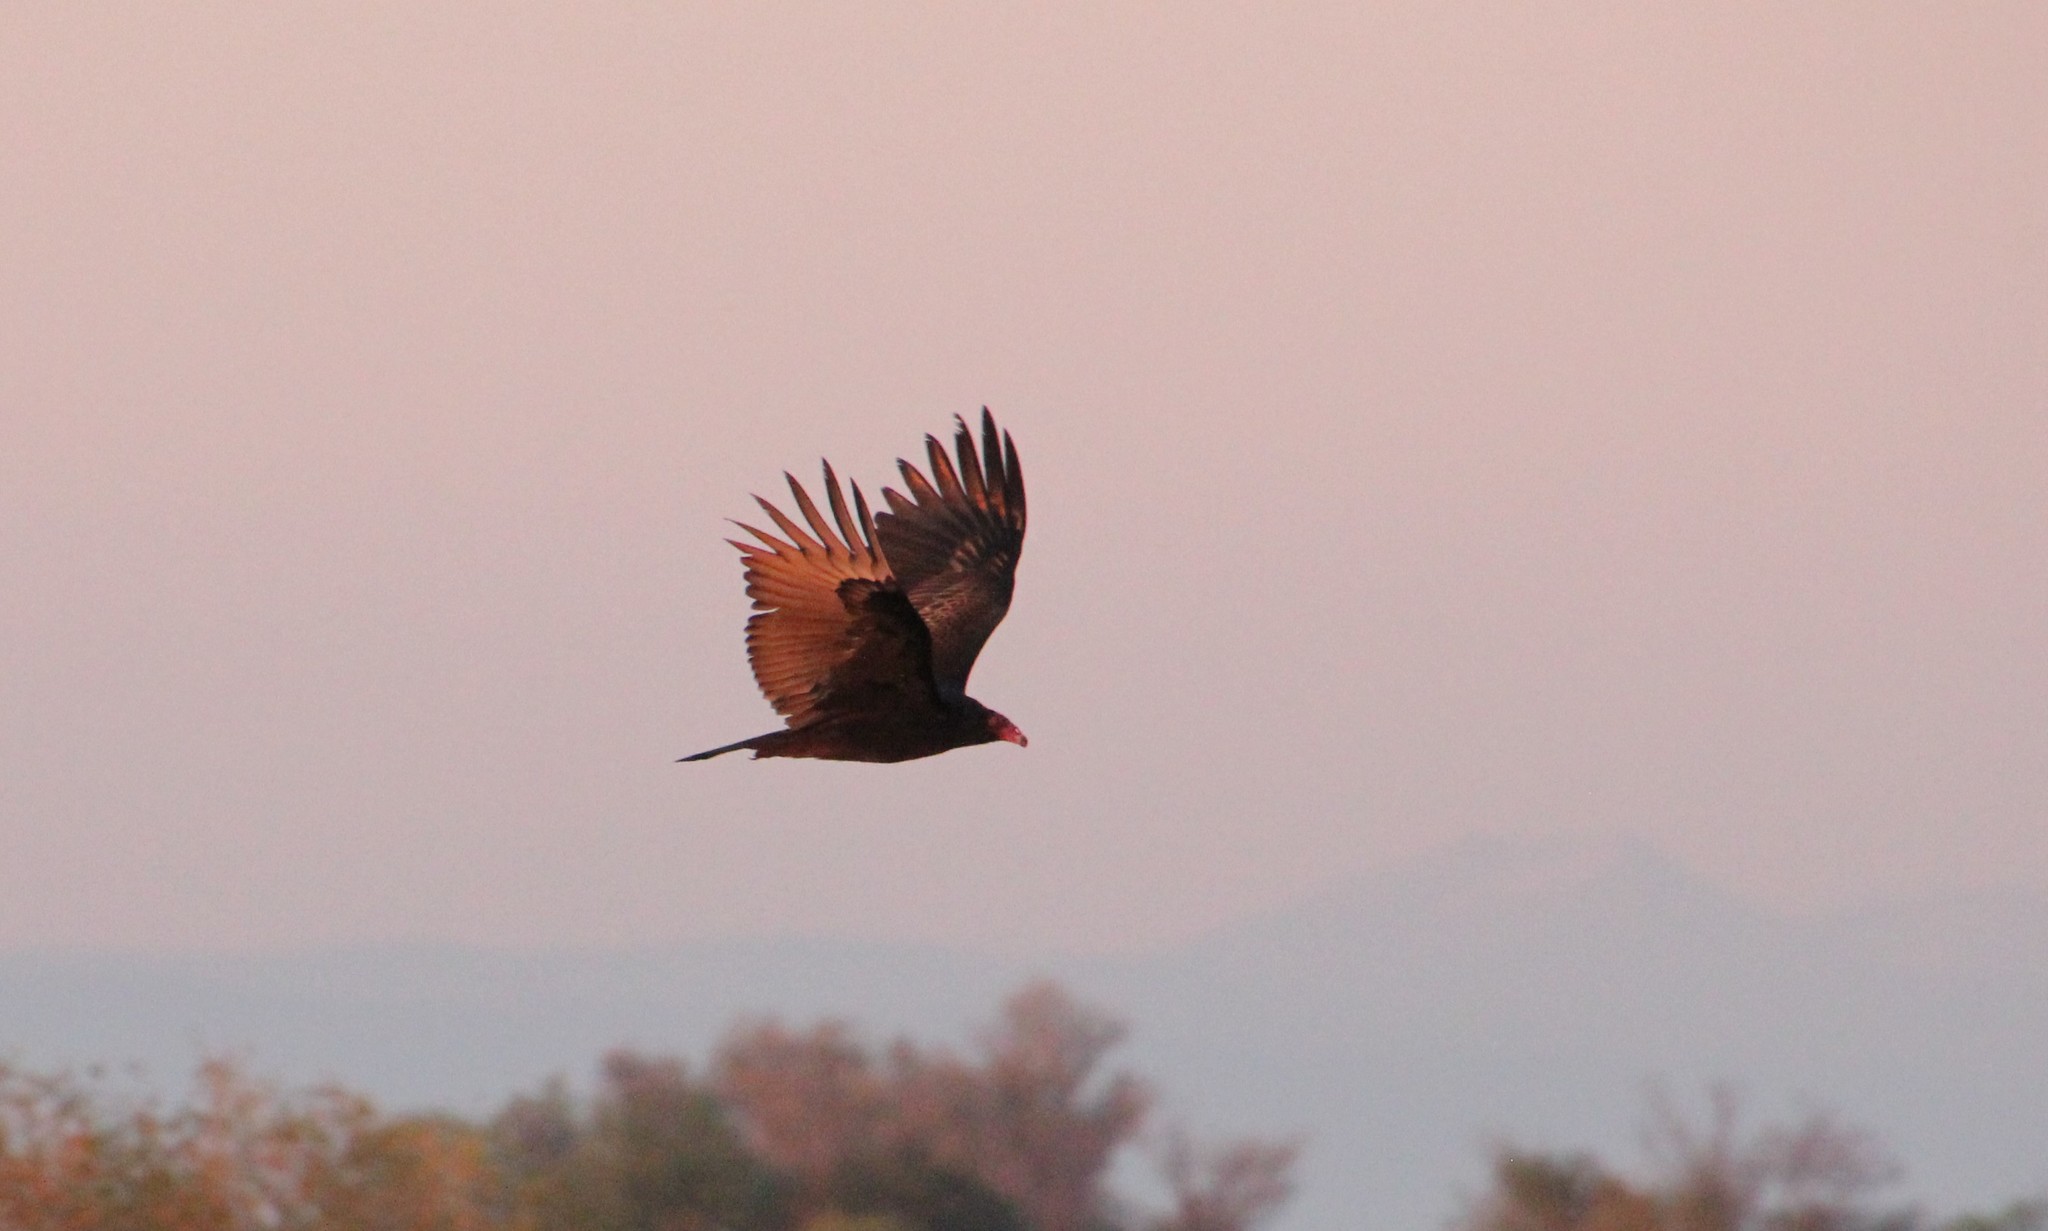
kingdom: Animalia
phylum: Chordata
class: Aves
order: Accipitriformes
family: Cathartidae
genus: Cathartes
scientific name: Cathartes aura
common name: Turkey vulture
